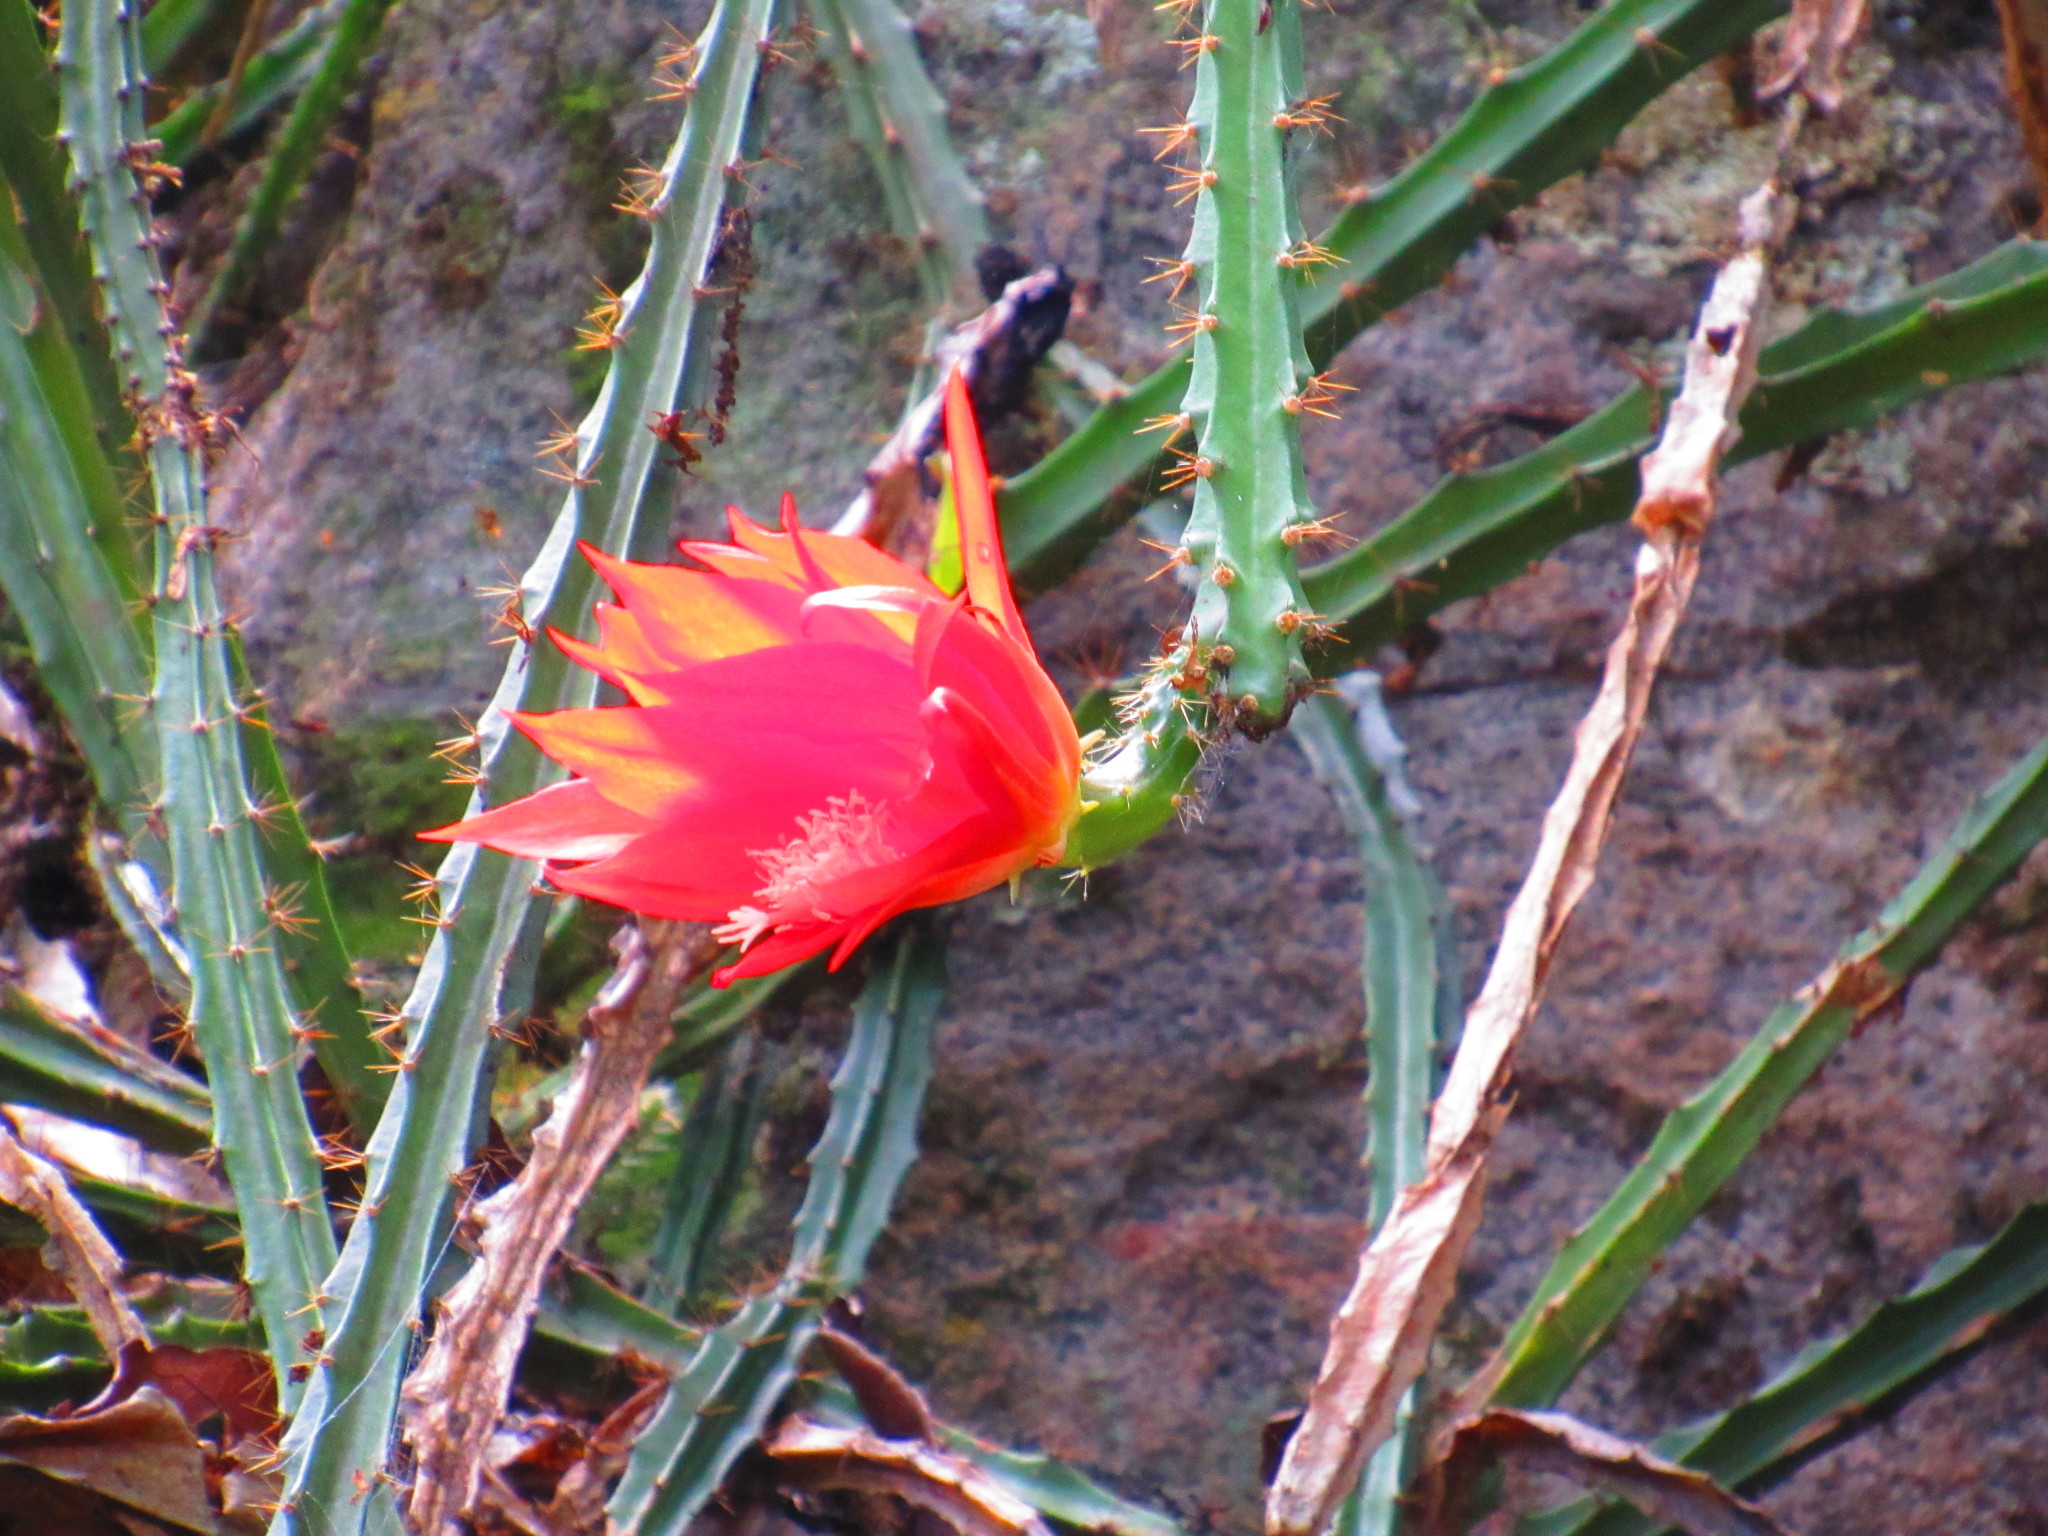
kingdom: Plantae
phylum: Tracheophyta
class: Magnoliopsida
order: Caryophyllales
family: Cactaceae
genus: Disocactus
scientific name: Disocactus speciosus
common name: Sun cereus
